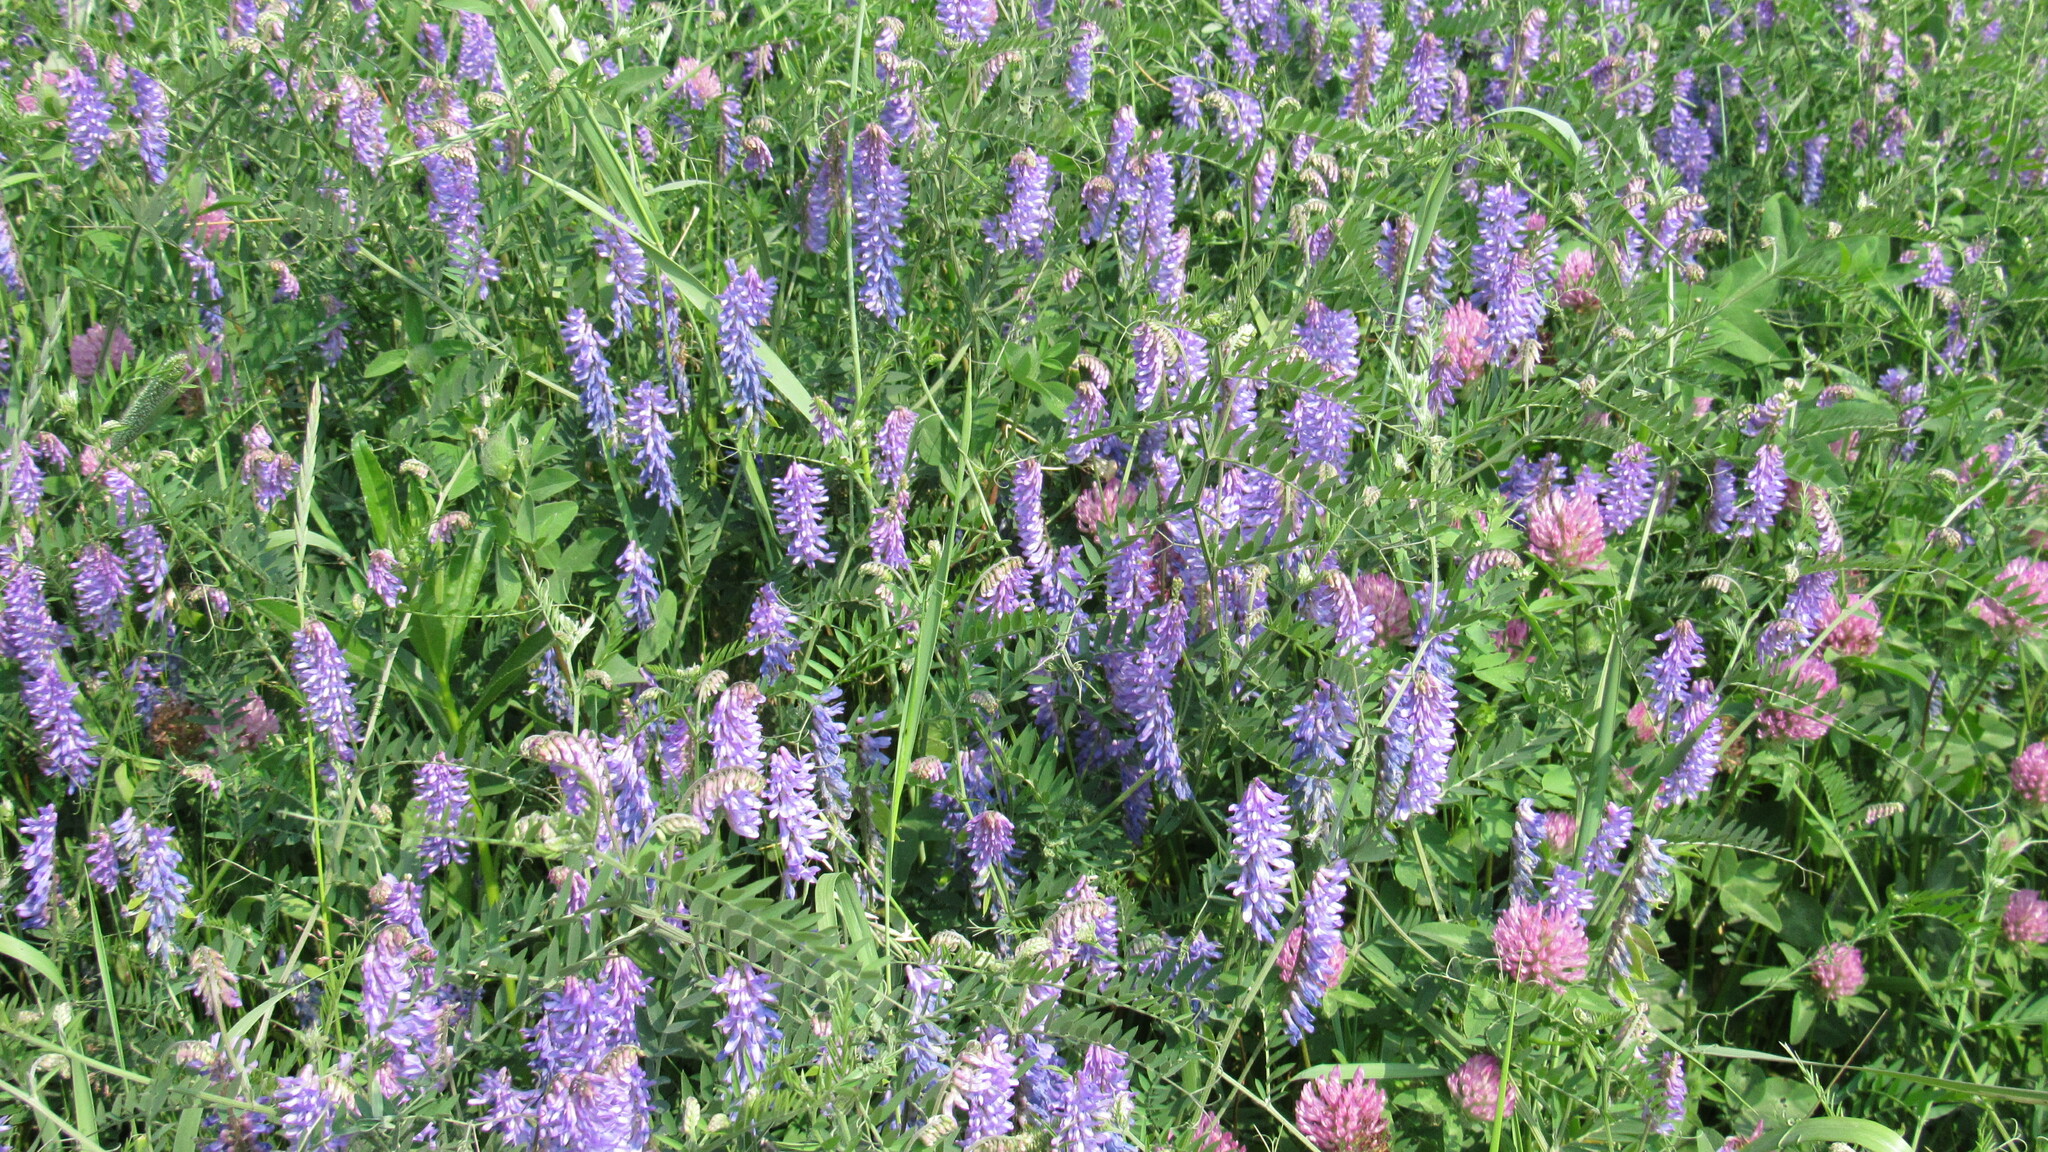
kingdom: Plantae
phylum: Tracheophyta
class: Magnoliopsida
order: Fabales
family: Fabaceae
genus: Vicia
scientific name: Vicia cracca
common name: Bird vetch
